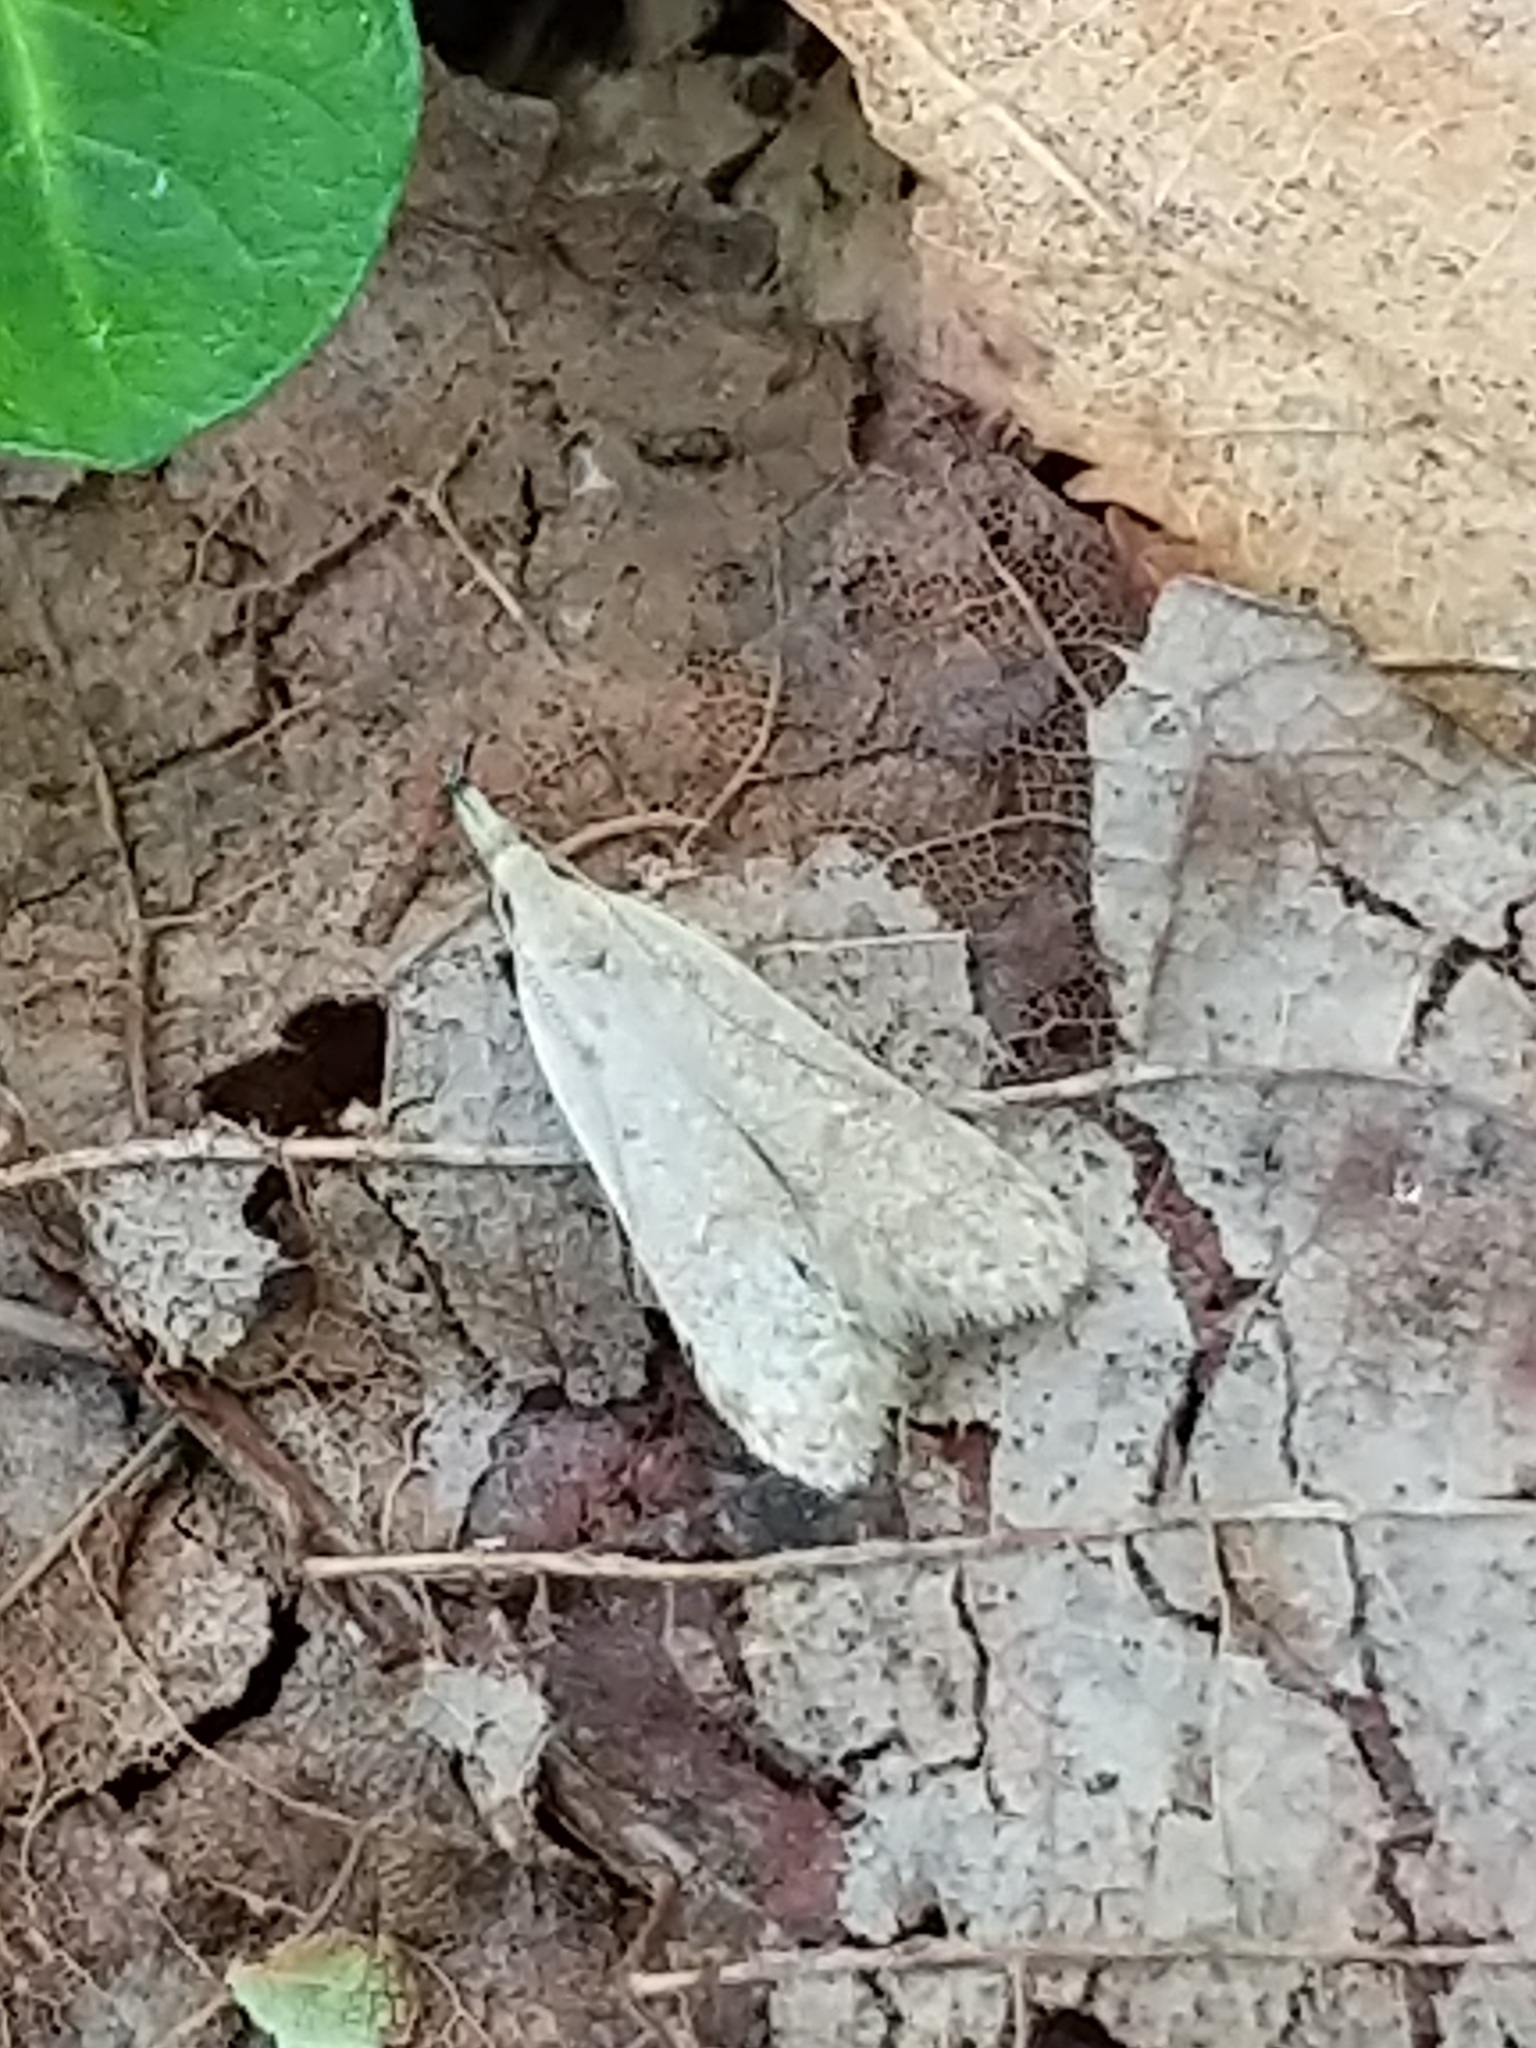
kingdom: Animalia
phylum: Arthropoda
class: Insecta
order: Lepidoptera
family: Gelechiidae
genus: Dichomeris
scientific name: Dichomeris punctidiscellus
